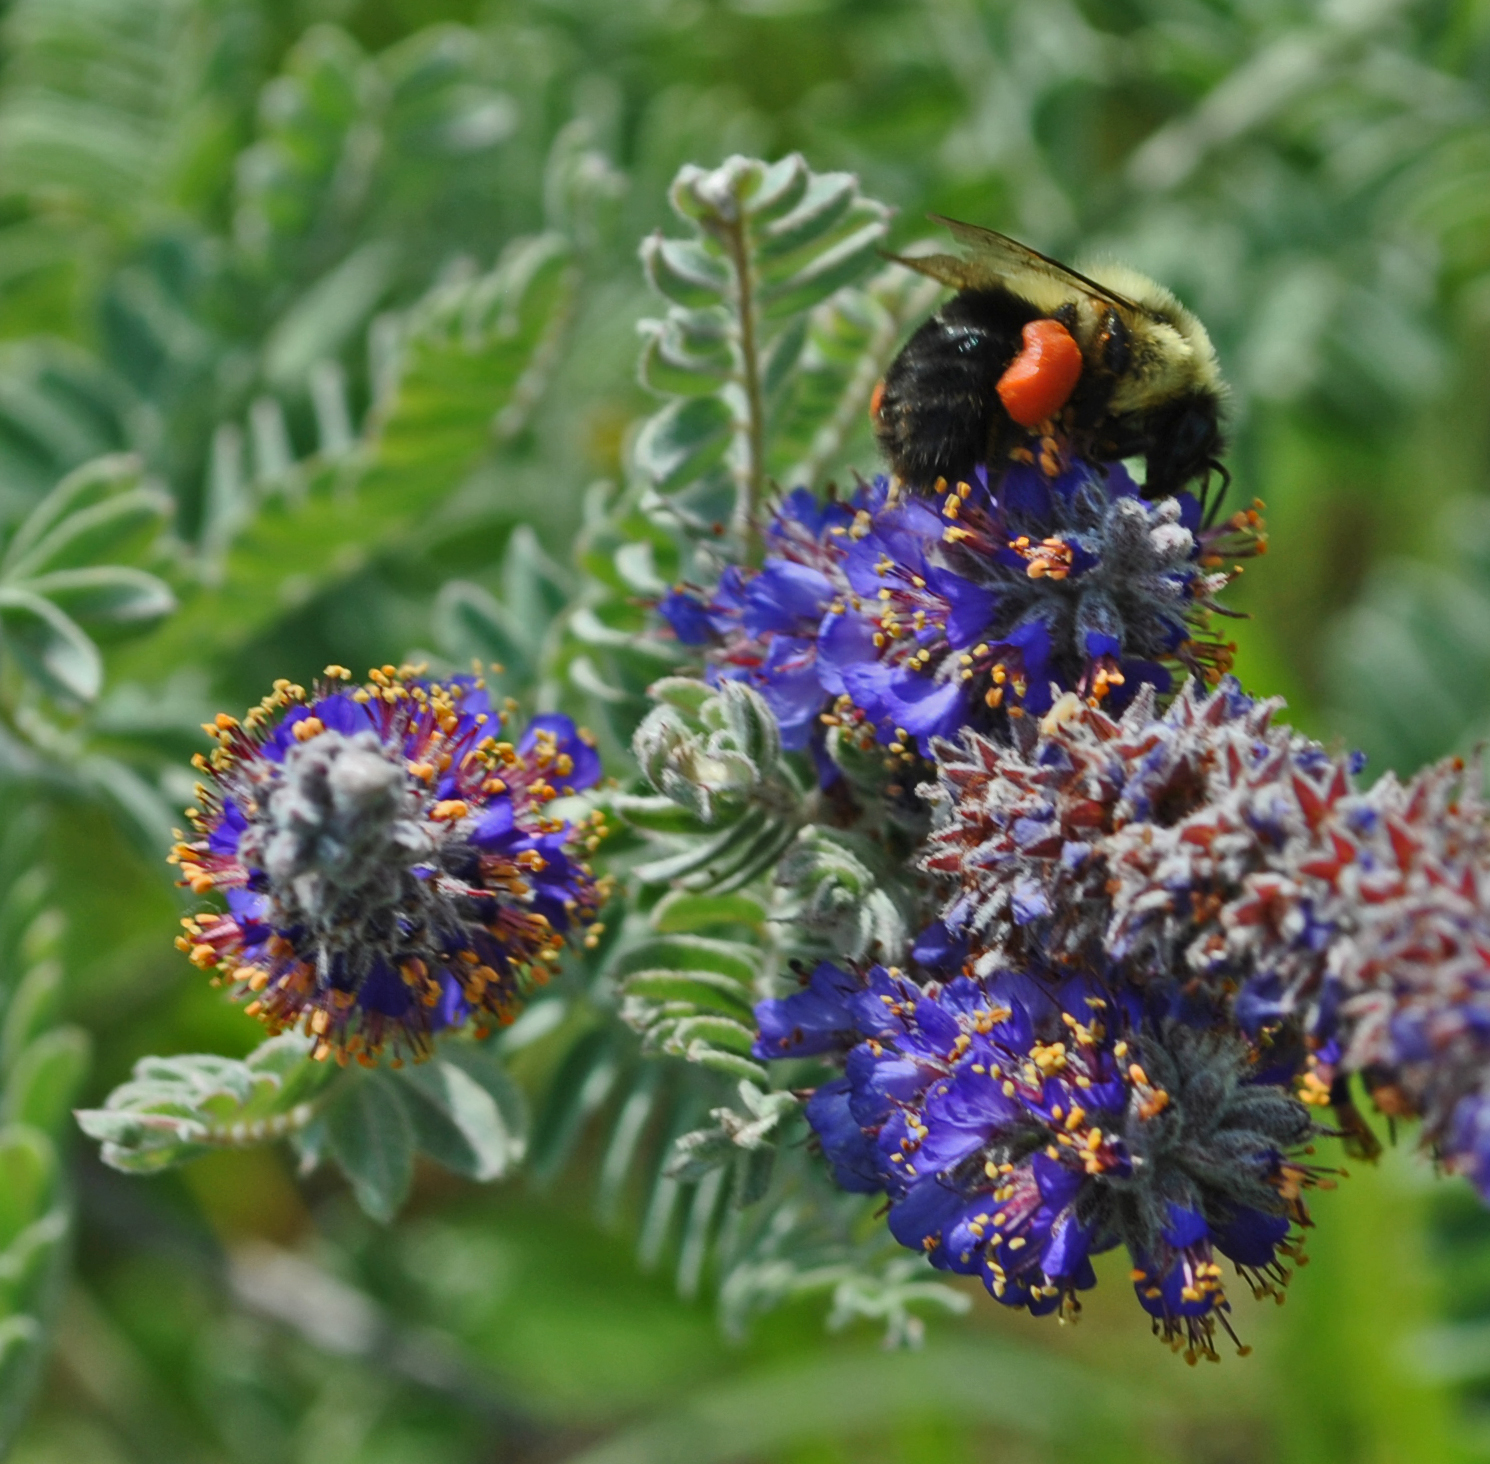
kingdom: Plantae
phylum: Tracheophyta
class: Magnoliopsida
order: Fabales
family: Fabaceae
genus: Amorpha
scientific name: Amorpha canescens
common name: Leadplant
